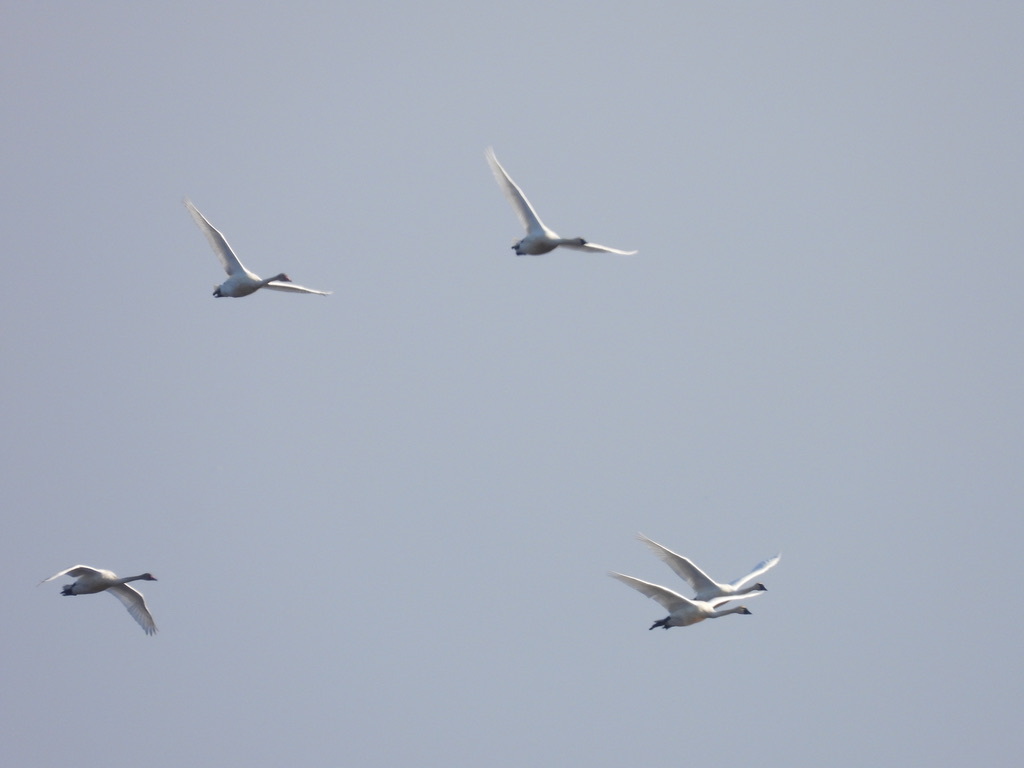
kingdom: Animalia
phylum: Chordata
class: Aves
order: Anseriformes
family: Anatidae
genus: Cygnus
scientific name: Cygnus columbianus
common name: Tundra swan
